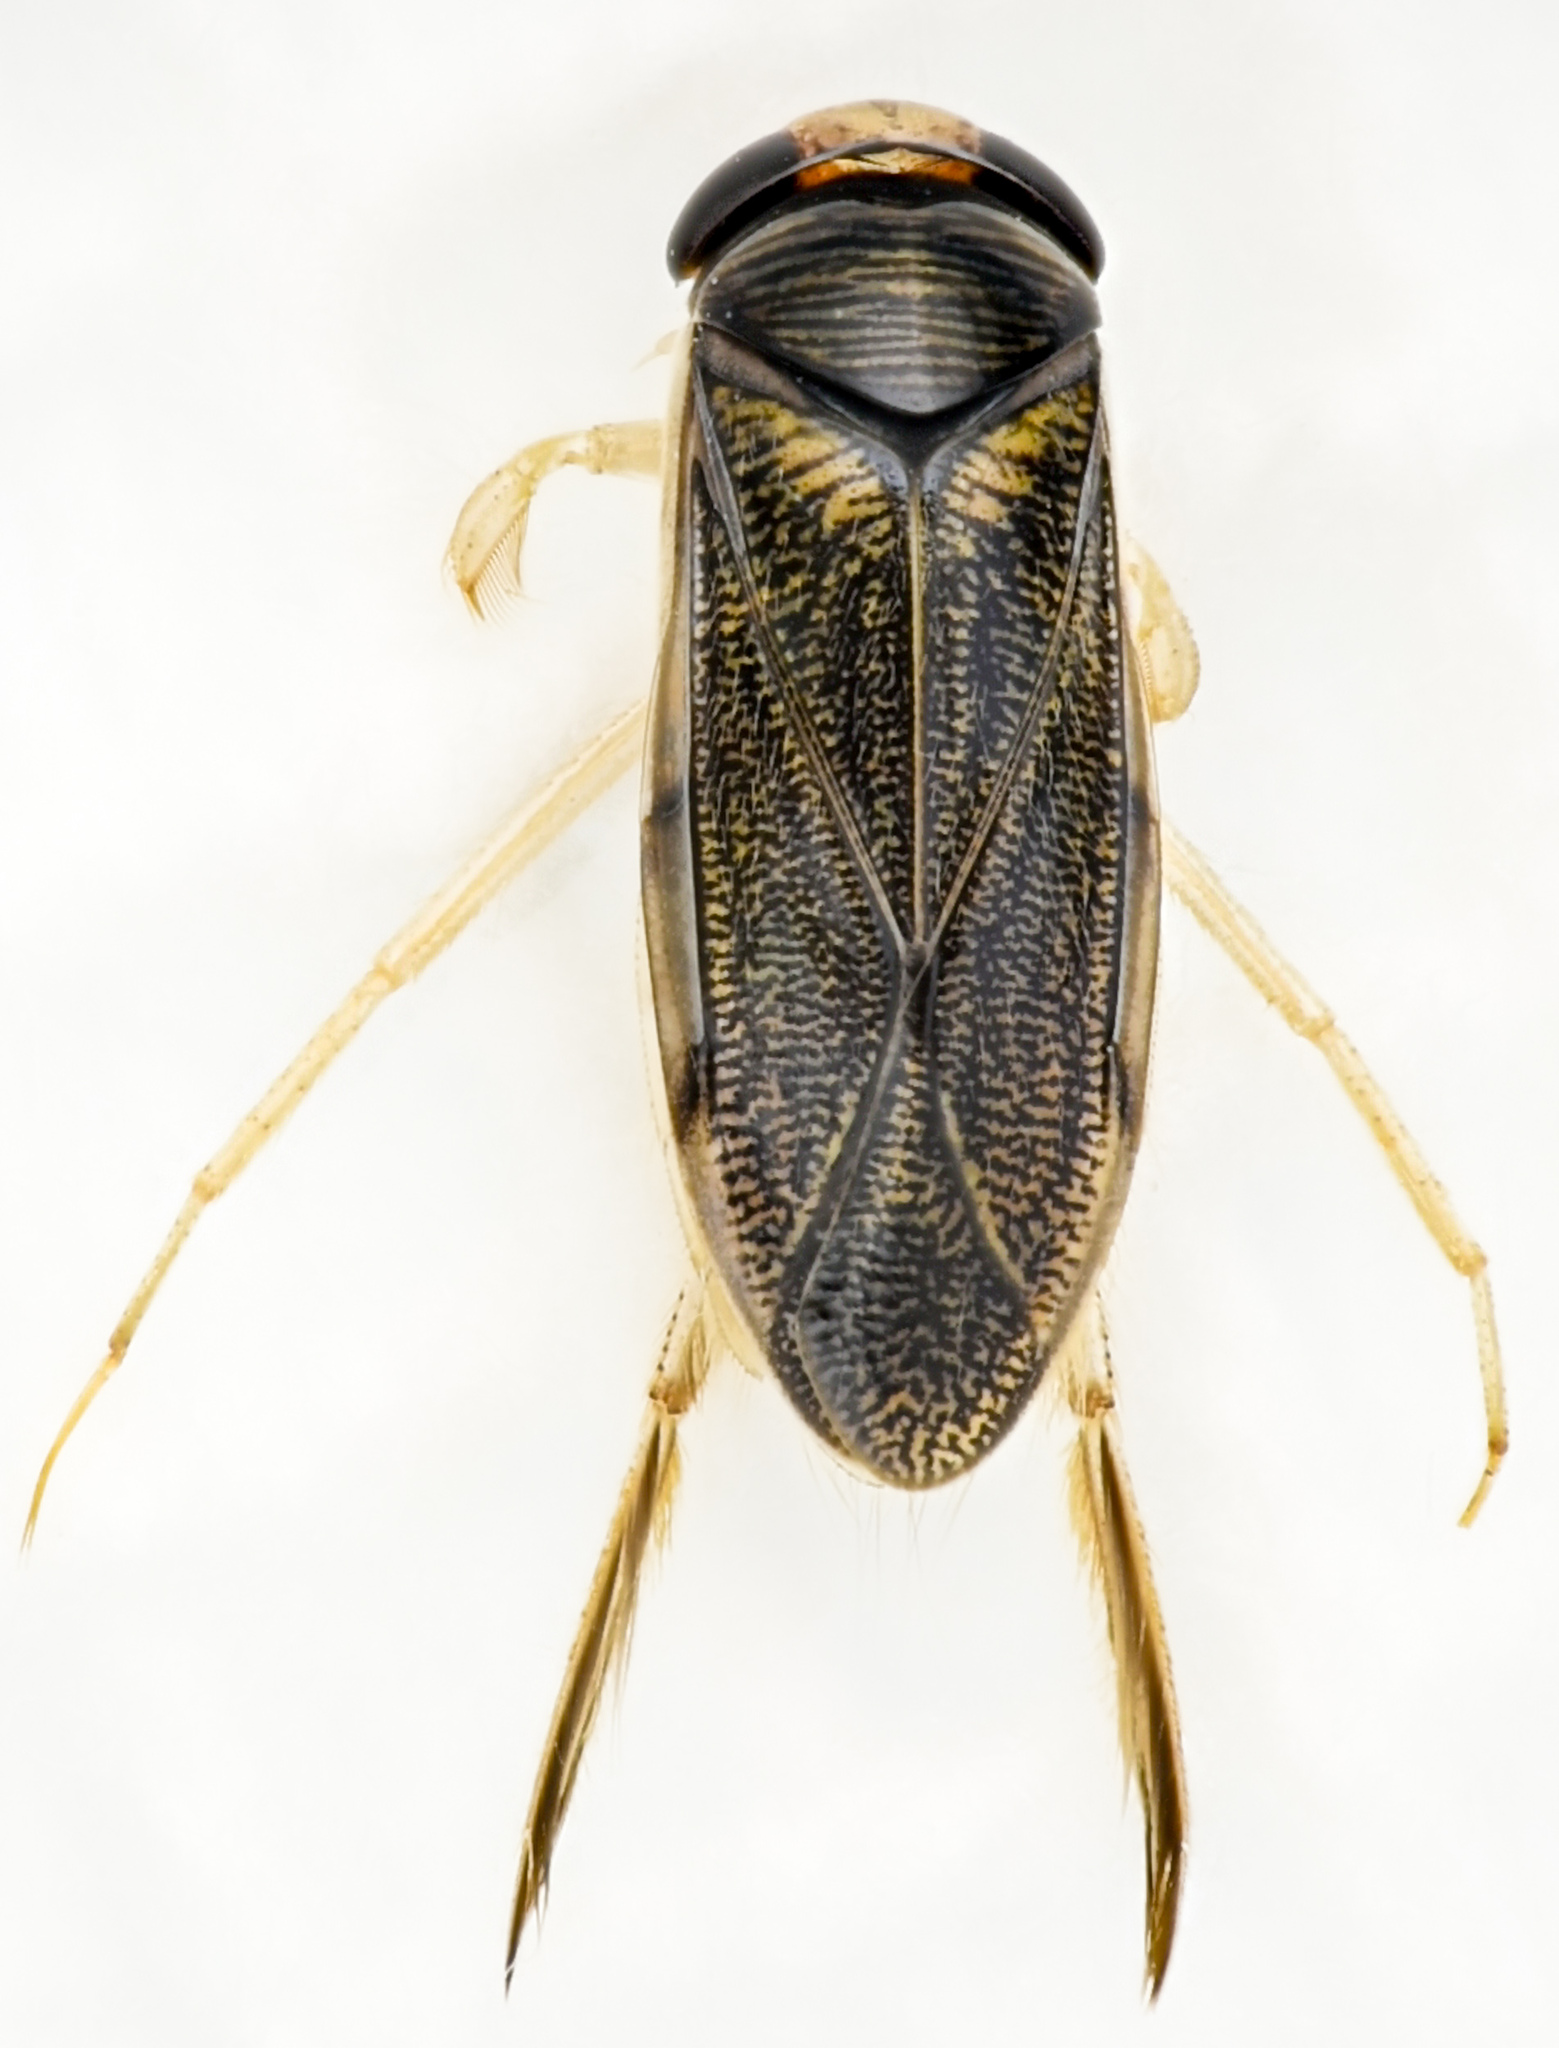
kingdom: Animalia
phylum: Arthropoda
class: Insecta
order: Hemiptera
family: Corixidae
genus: Corisella
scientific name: Corisella
